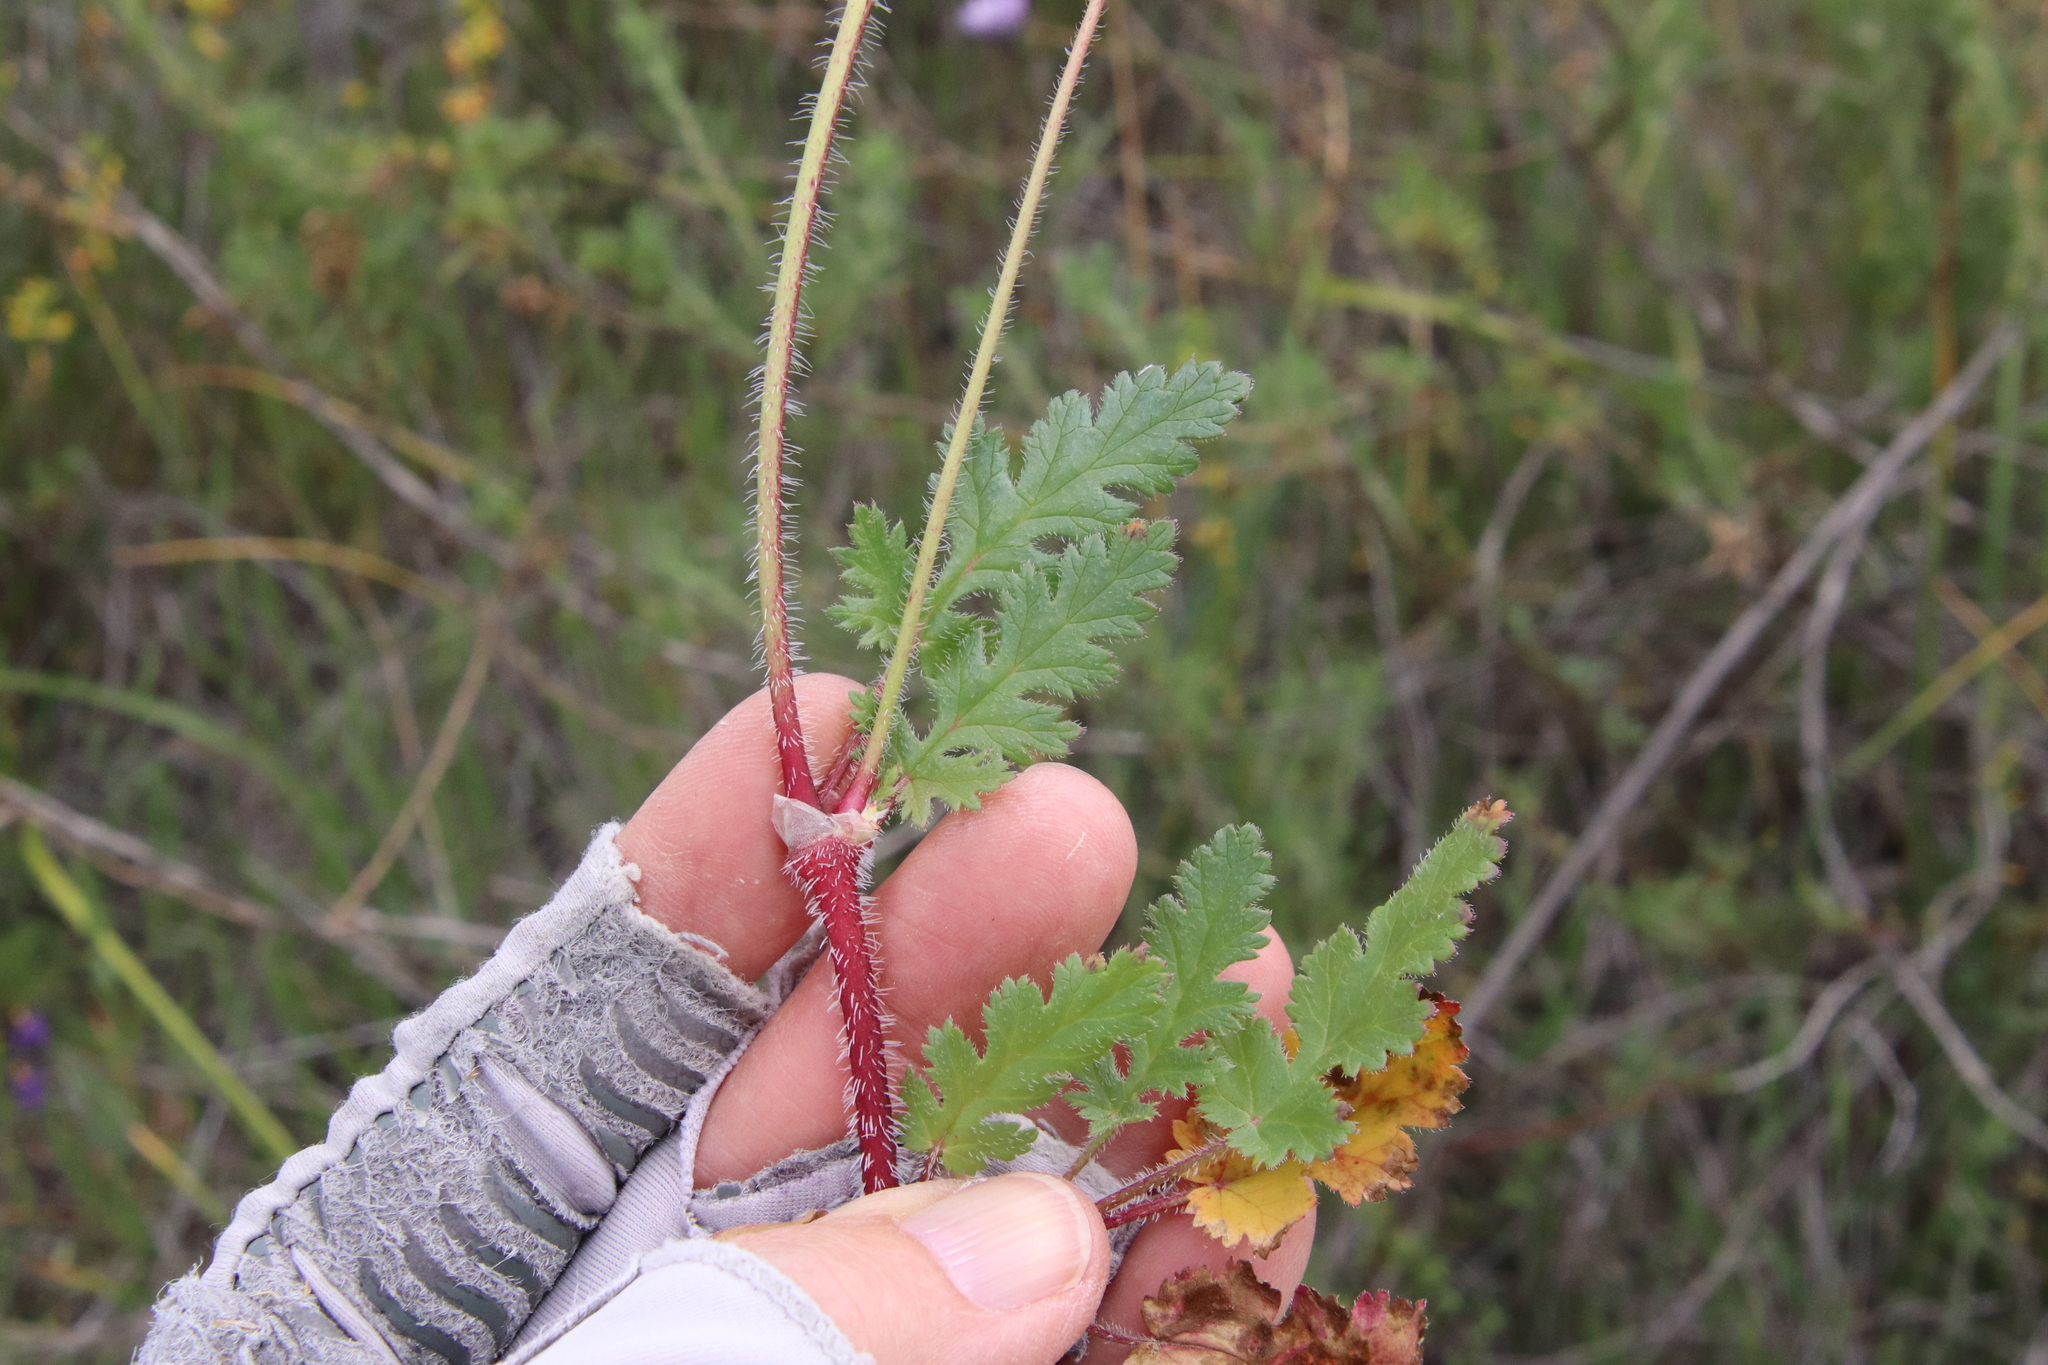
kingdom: Plantae
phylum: Tracheophyta
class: Magnoliopsida
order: Geraniales
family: Geraniaceae
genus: Erodium
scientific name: Erodium botrys
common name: Mediterranean stork's-bill
